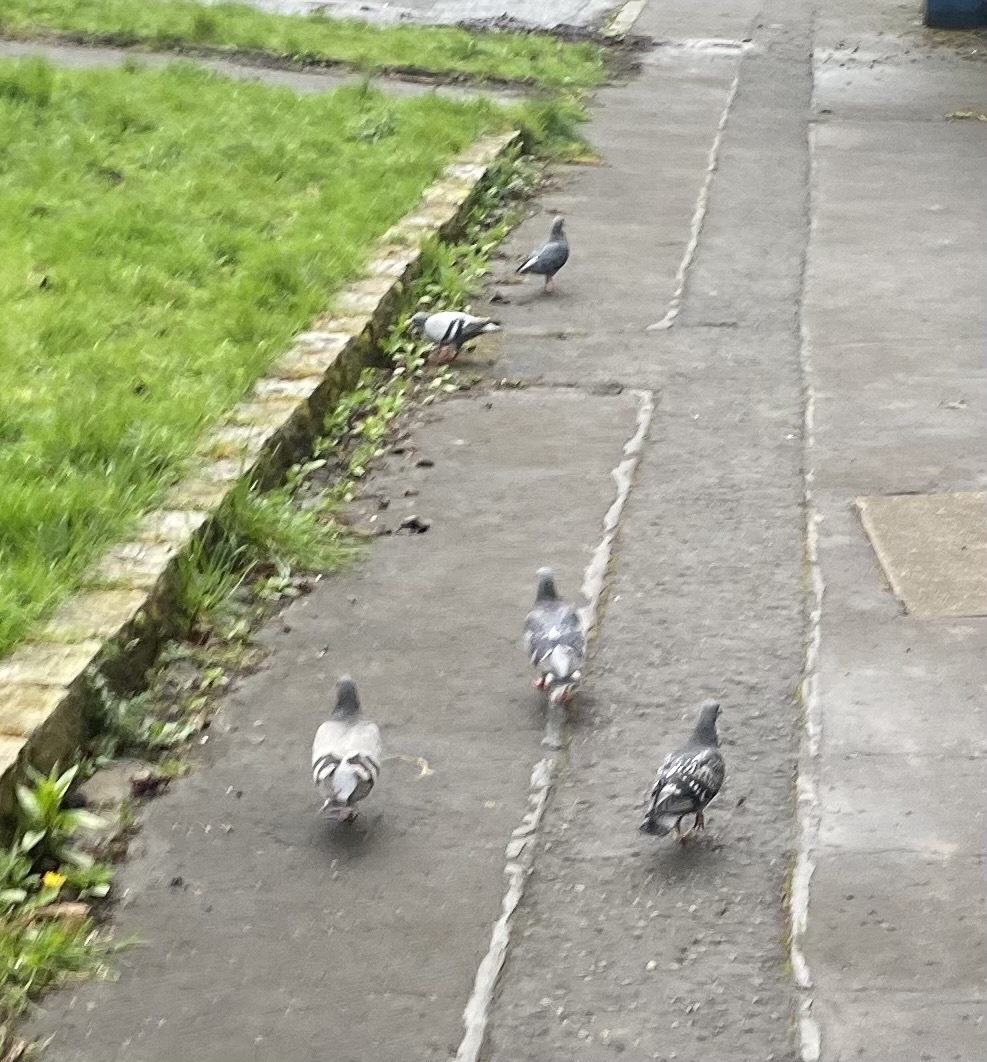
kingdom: Animalia
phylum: Chordata
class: Aves
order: Columbiformes
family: Columbidae
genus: Columba
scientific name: Columba livia
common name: Rock pigeon
